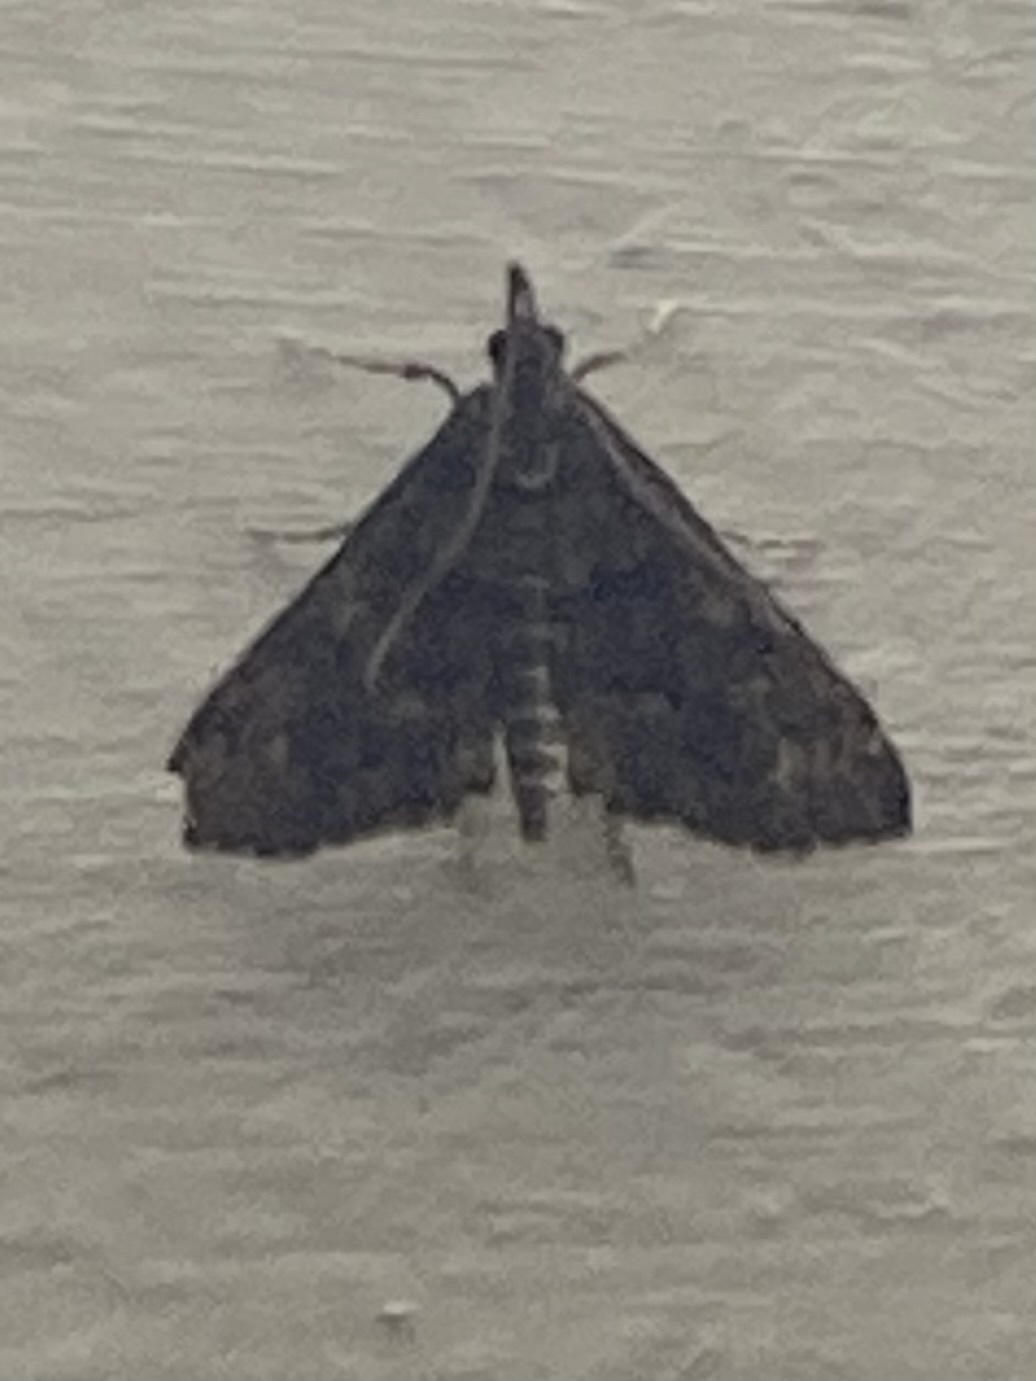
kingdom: Animalia
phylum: Arthropoda
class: Insecta
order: Lepidoptera
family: Crambidae
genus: Loxostege
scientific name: Loxostege Proternia philocapna
